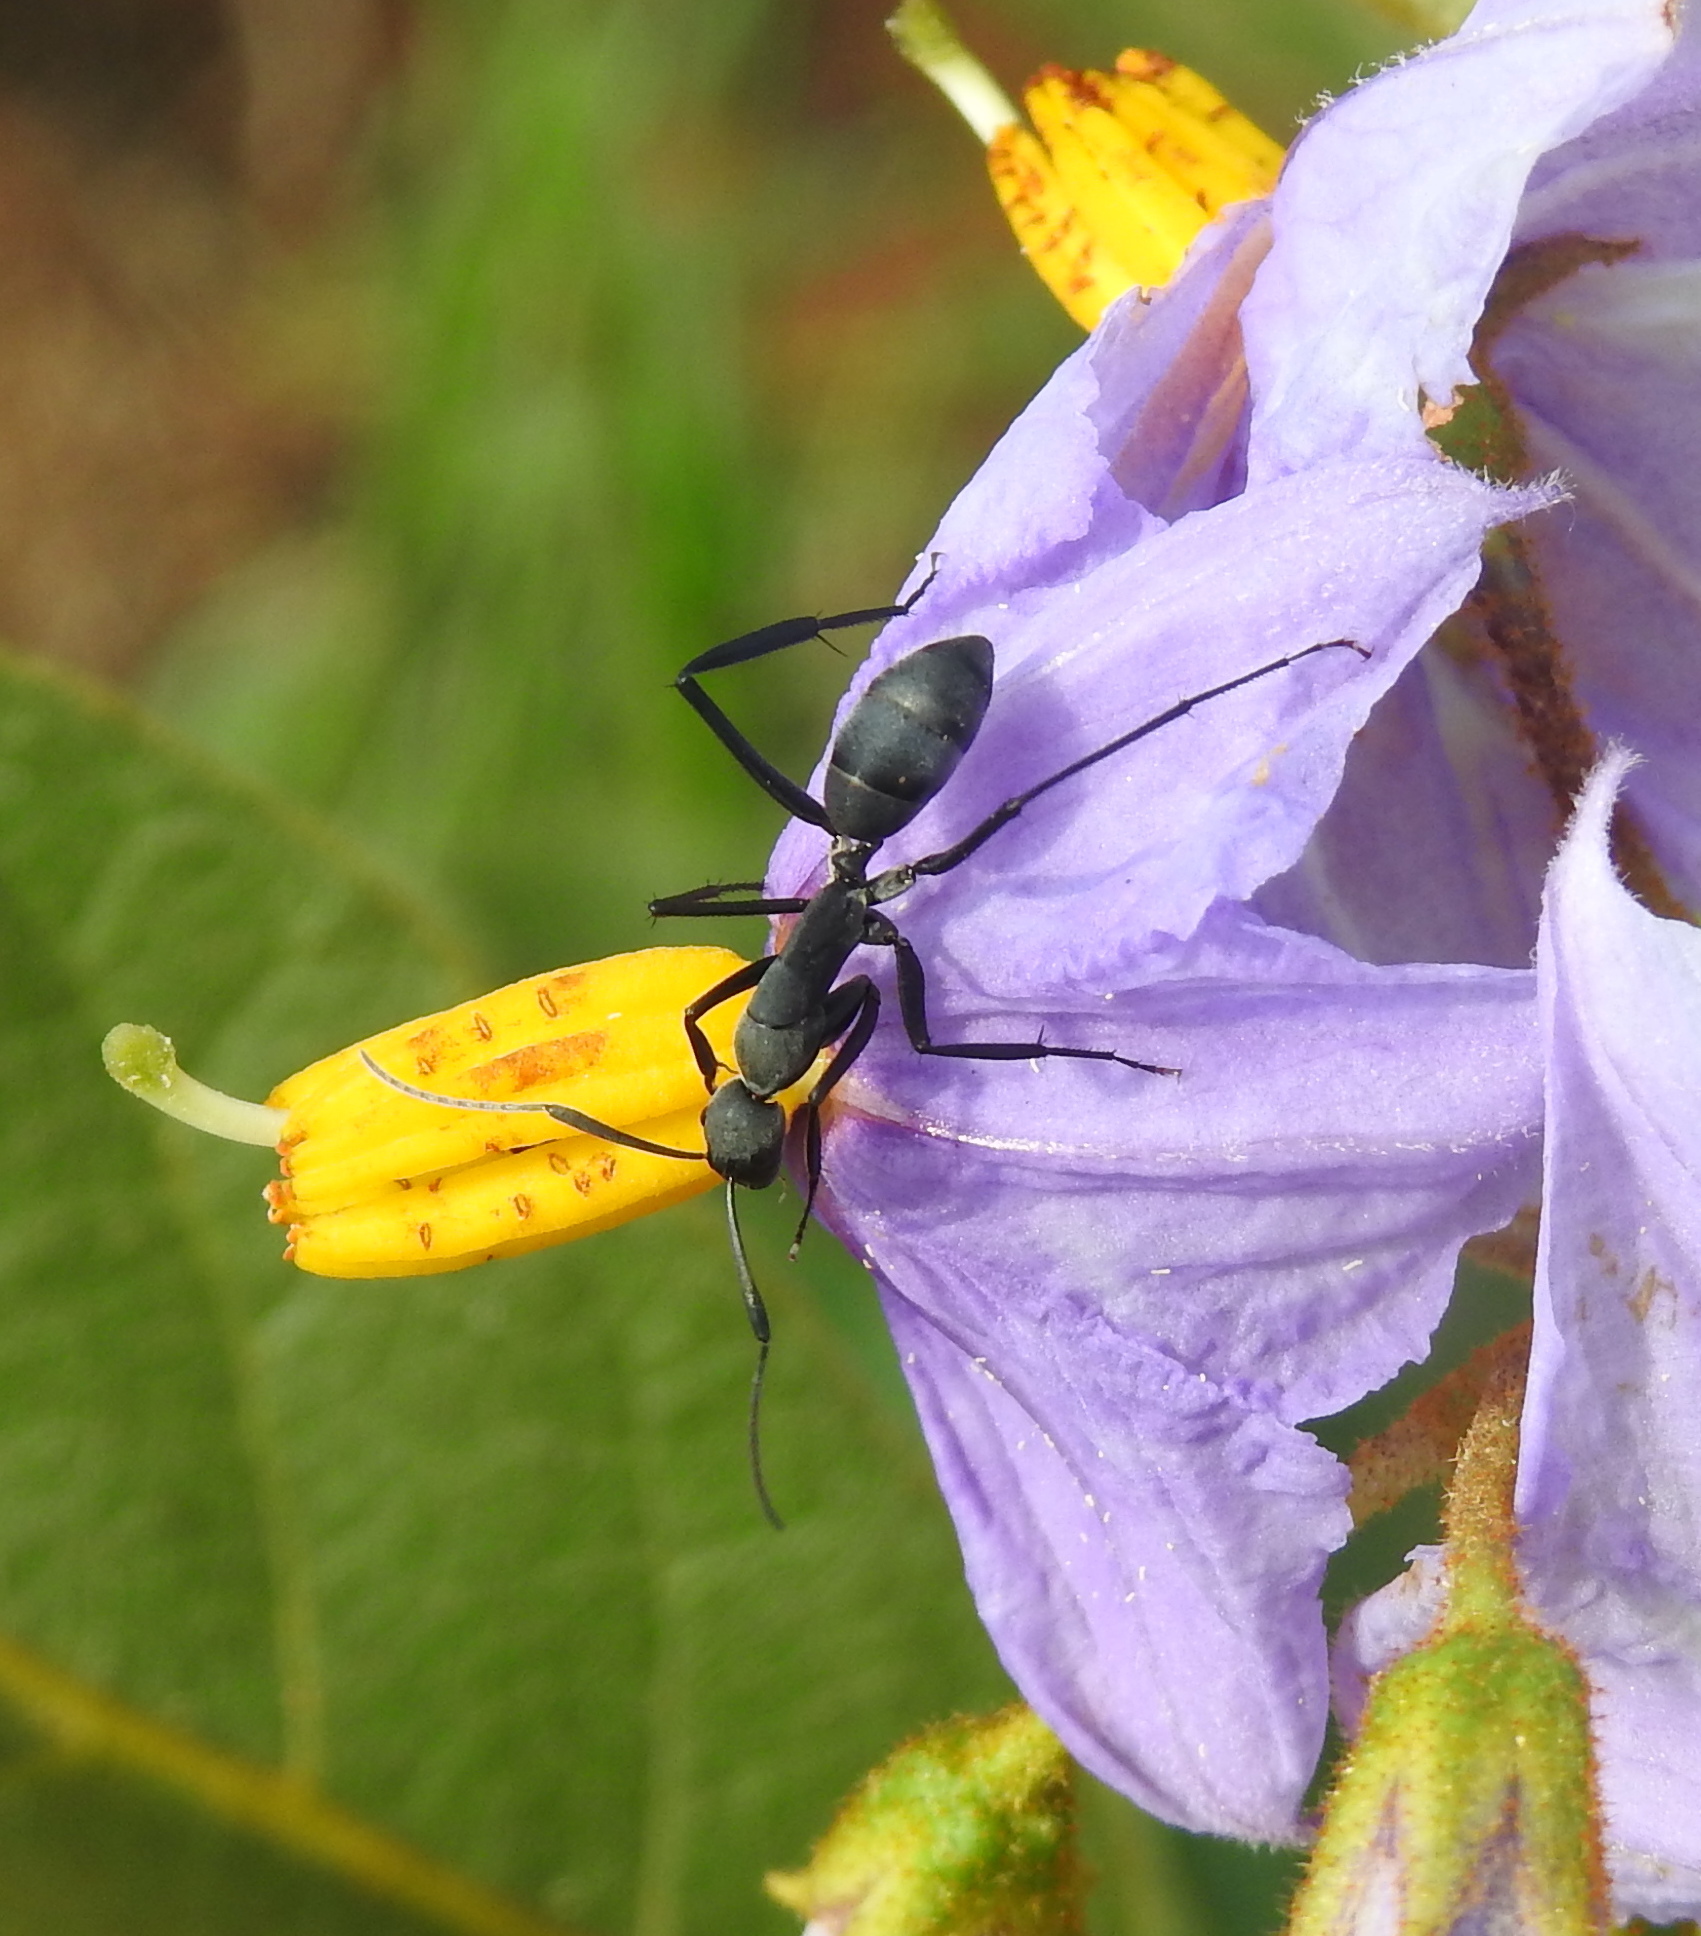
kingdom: Animalia
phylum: Arthropoda
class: Insecta
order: Hymenoptera
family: Formicidae
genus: Camponotus
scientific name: Camponotus petersii
